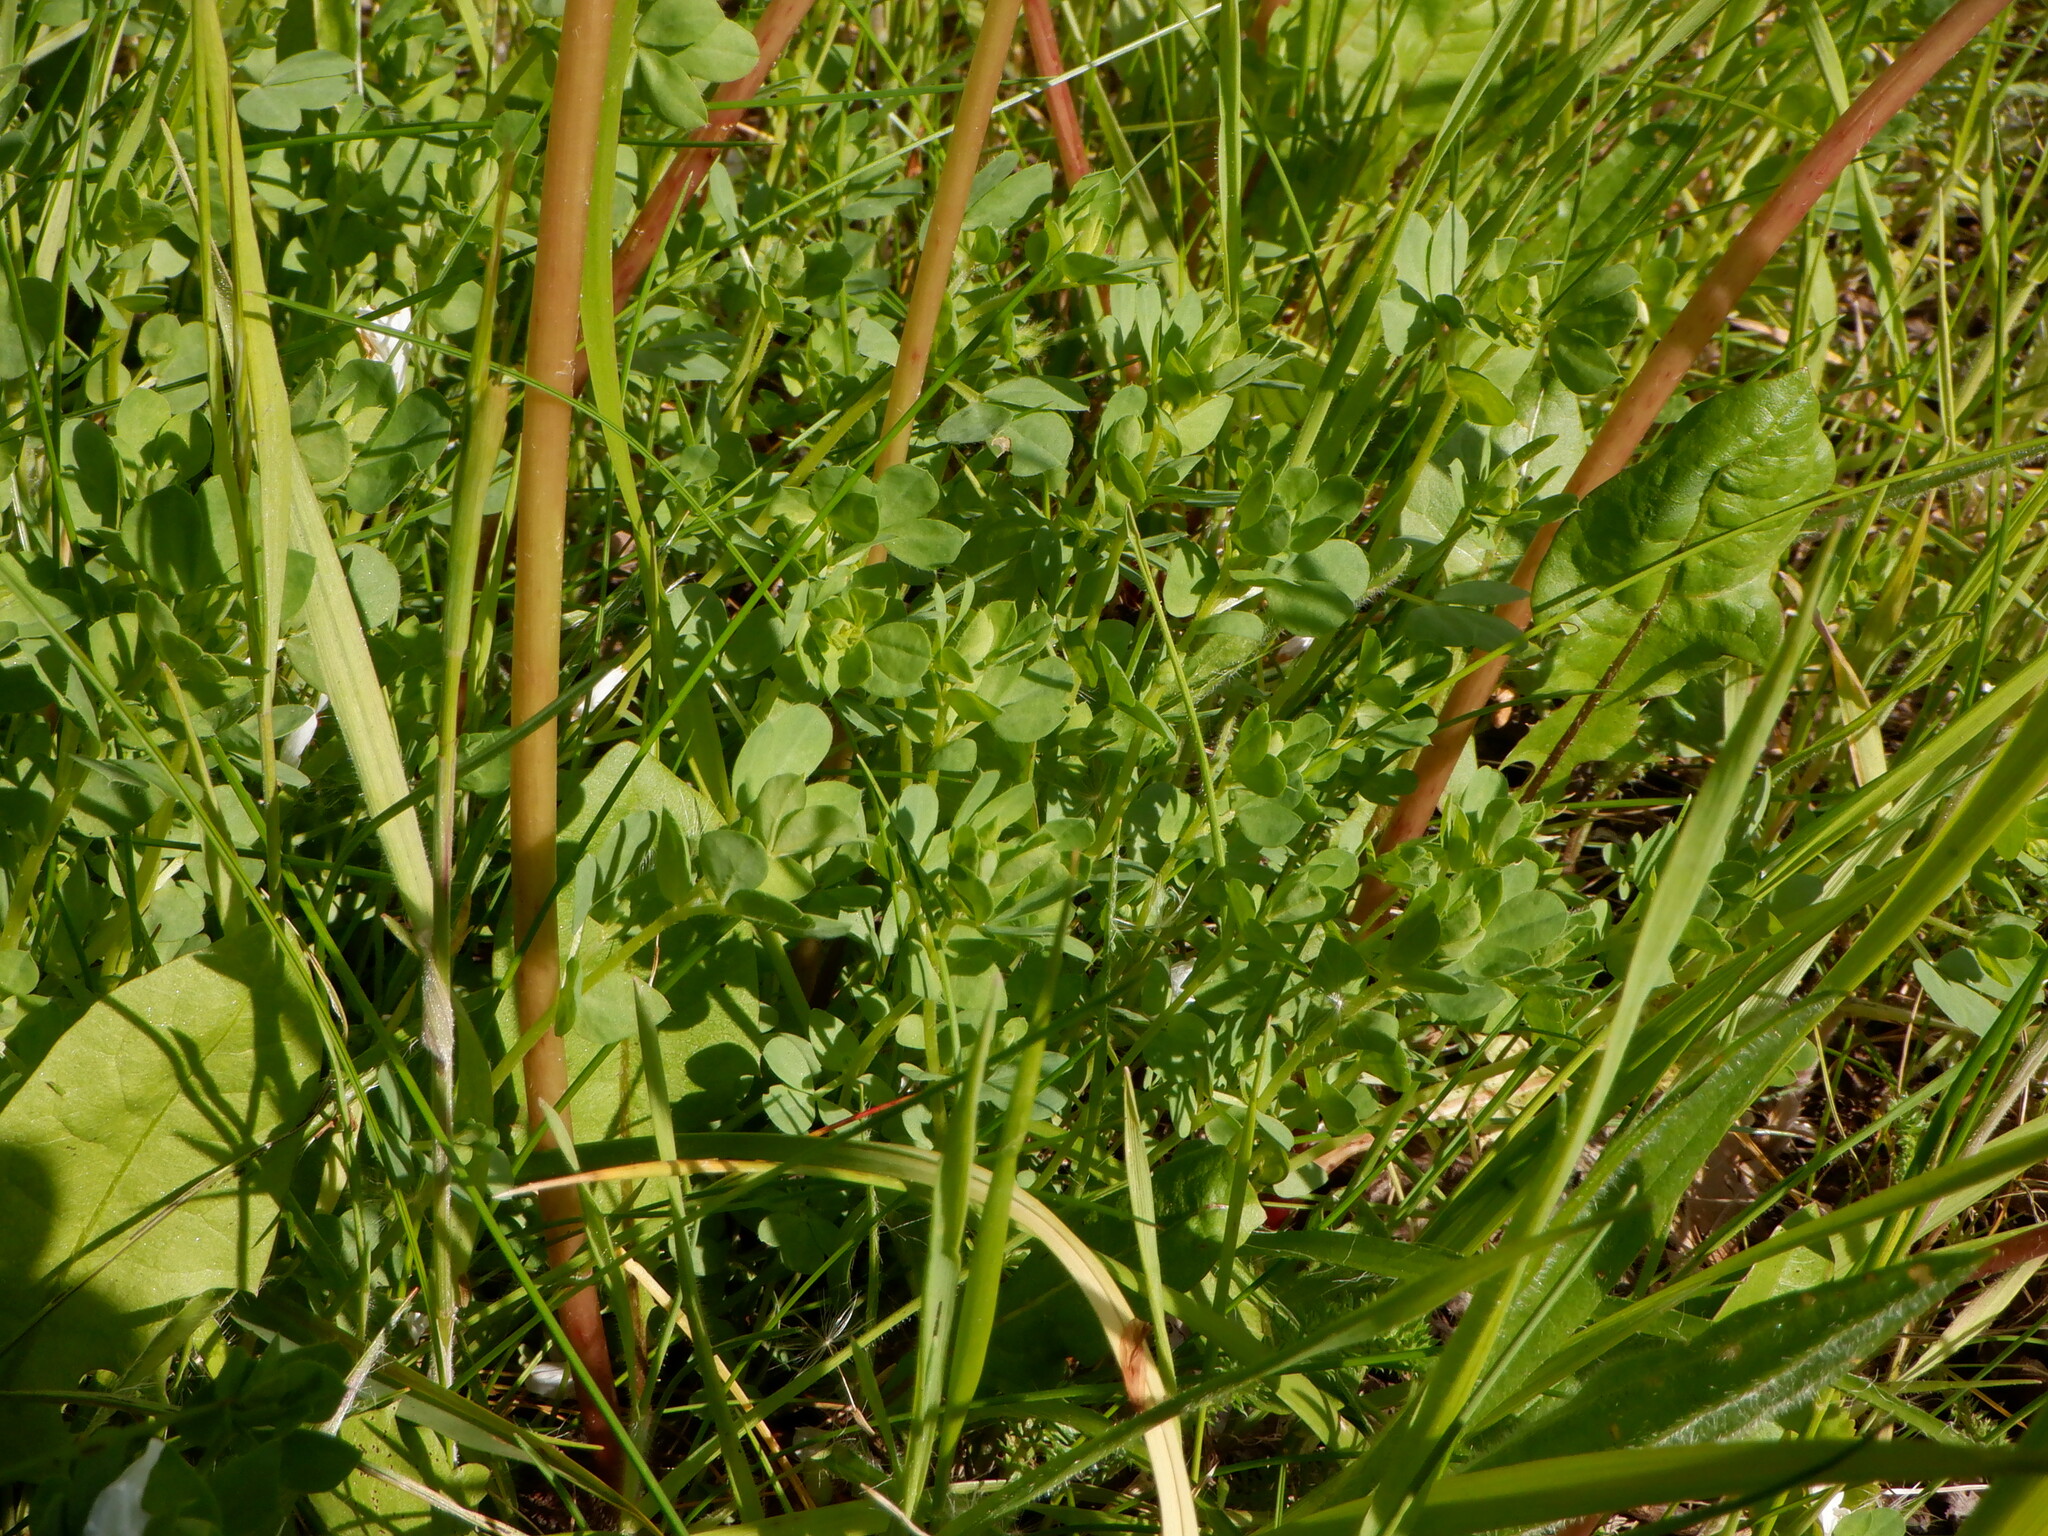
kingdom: Plantae
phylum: Tracheophyta
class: Magnoliopsida
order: Fabales
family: Fabaceae
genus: Lotus
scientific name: Lotus corniculatus
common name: Common bird's-foot-trefoil
